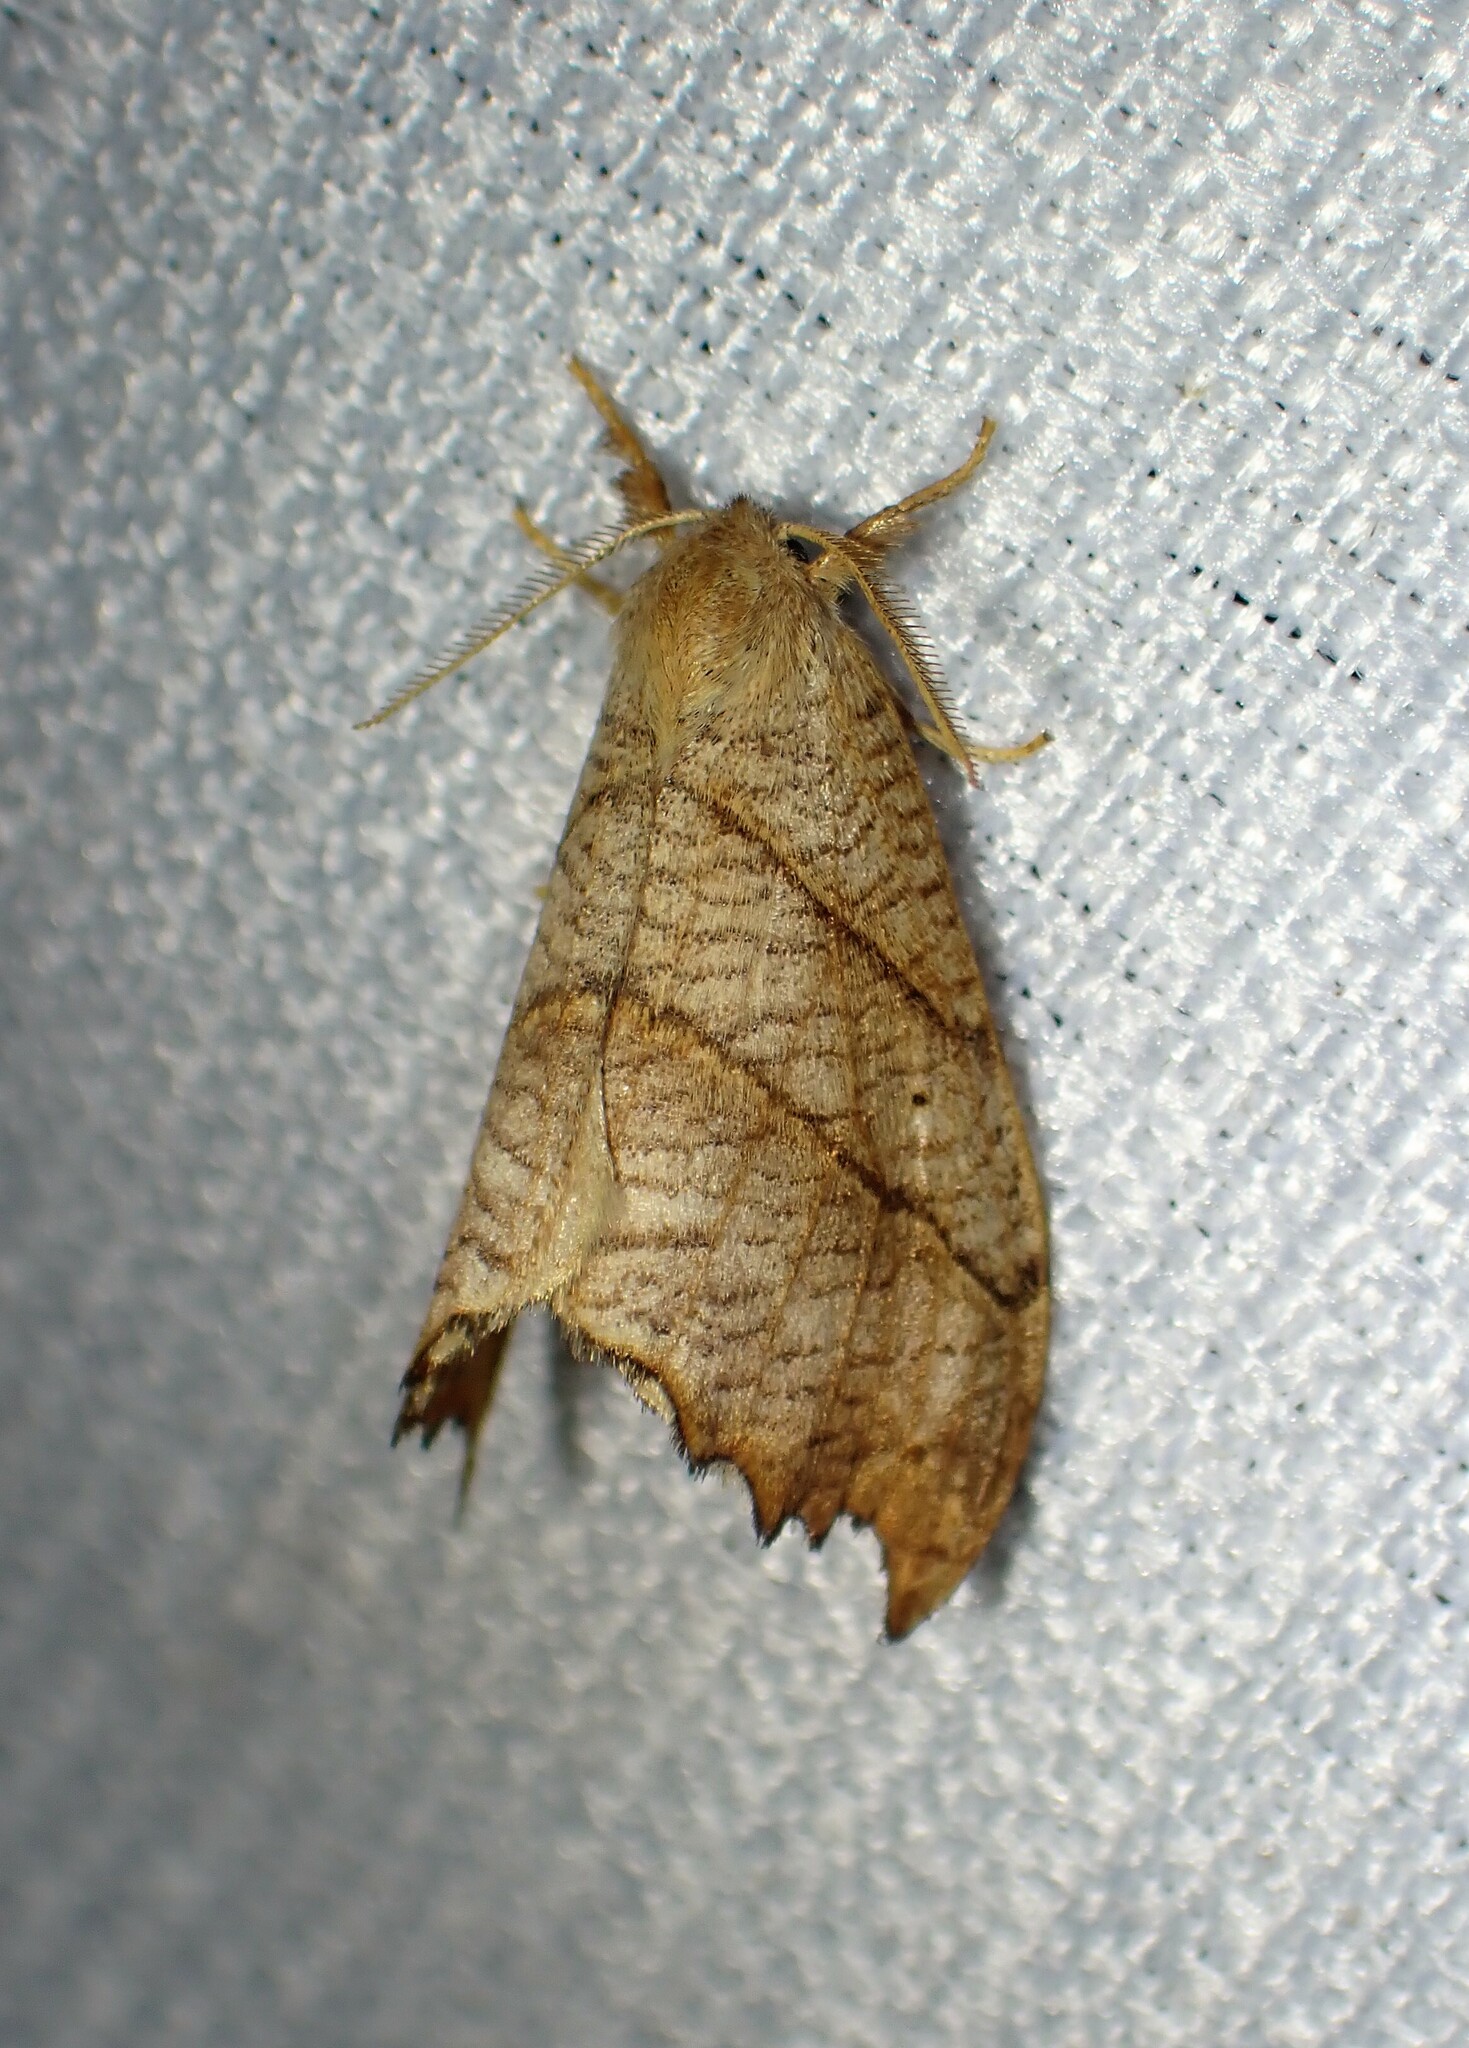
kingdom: Animalia
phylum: Arthropoda
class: Insecta
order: Lepidoptera
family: Drepanidae
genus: Falcaria
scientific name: Falcaria bilineata
